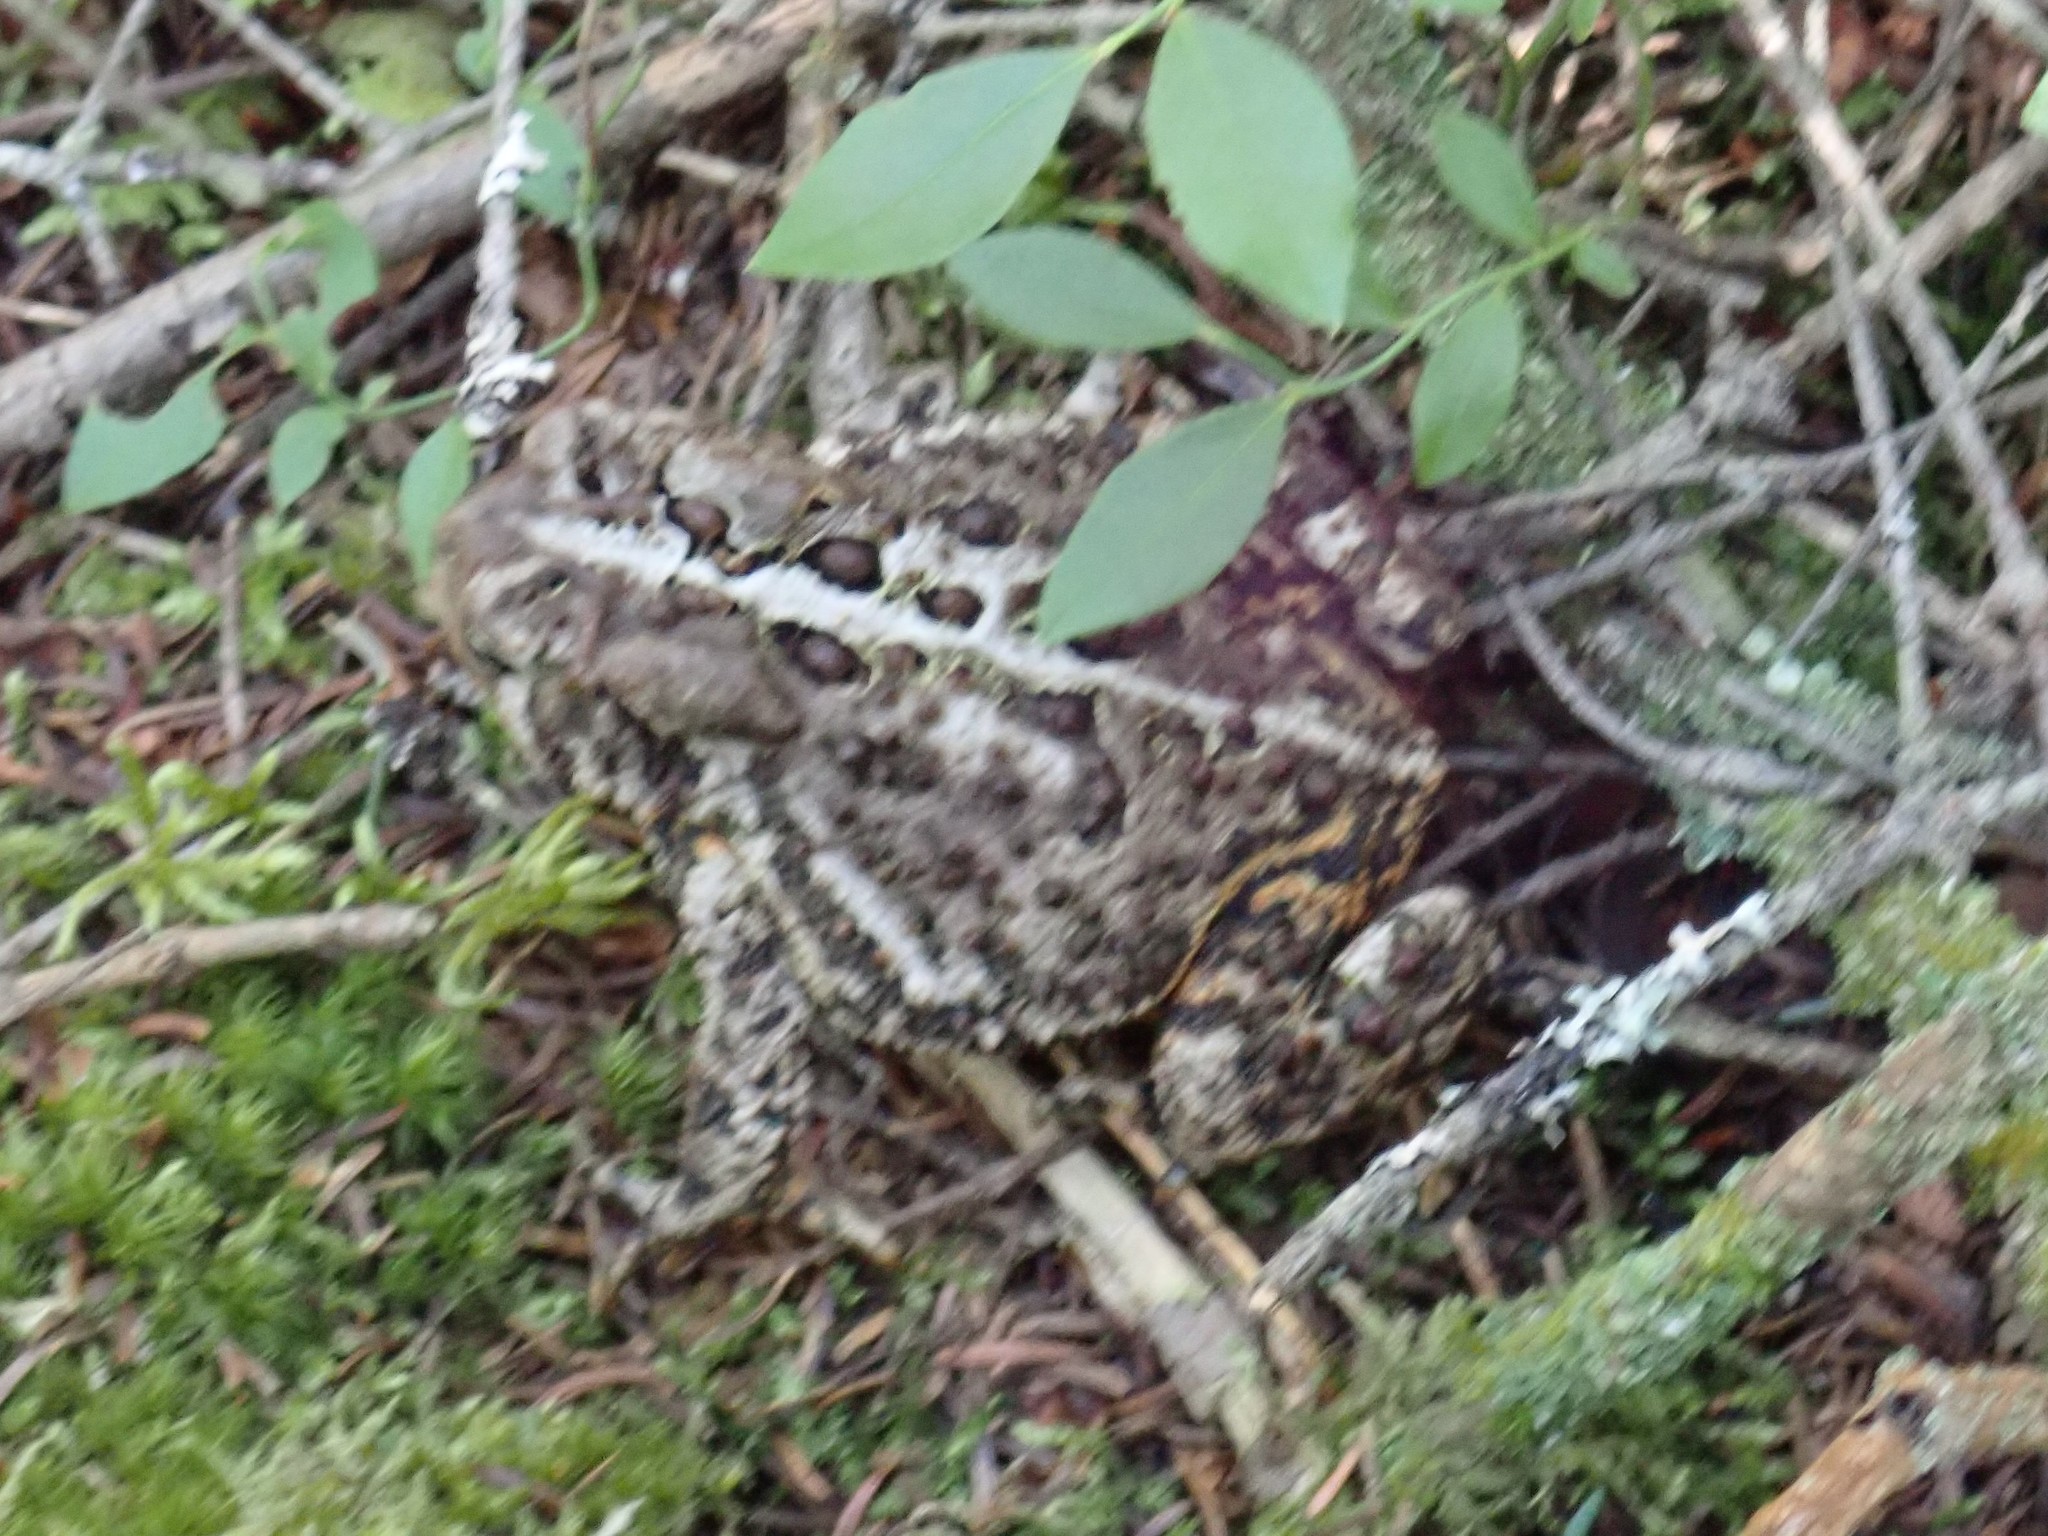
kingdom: Animalia
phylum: Chordata
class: Amphibia
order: Anura
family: Bufonidae
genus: Anaxyrus
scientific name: Anaxyrus americanus
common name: American toad
